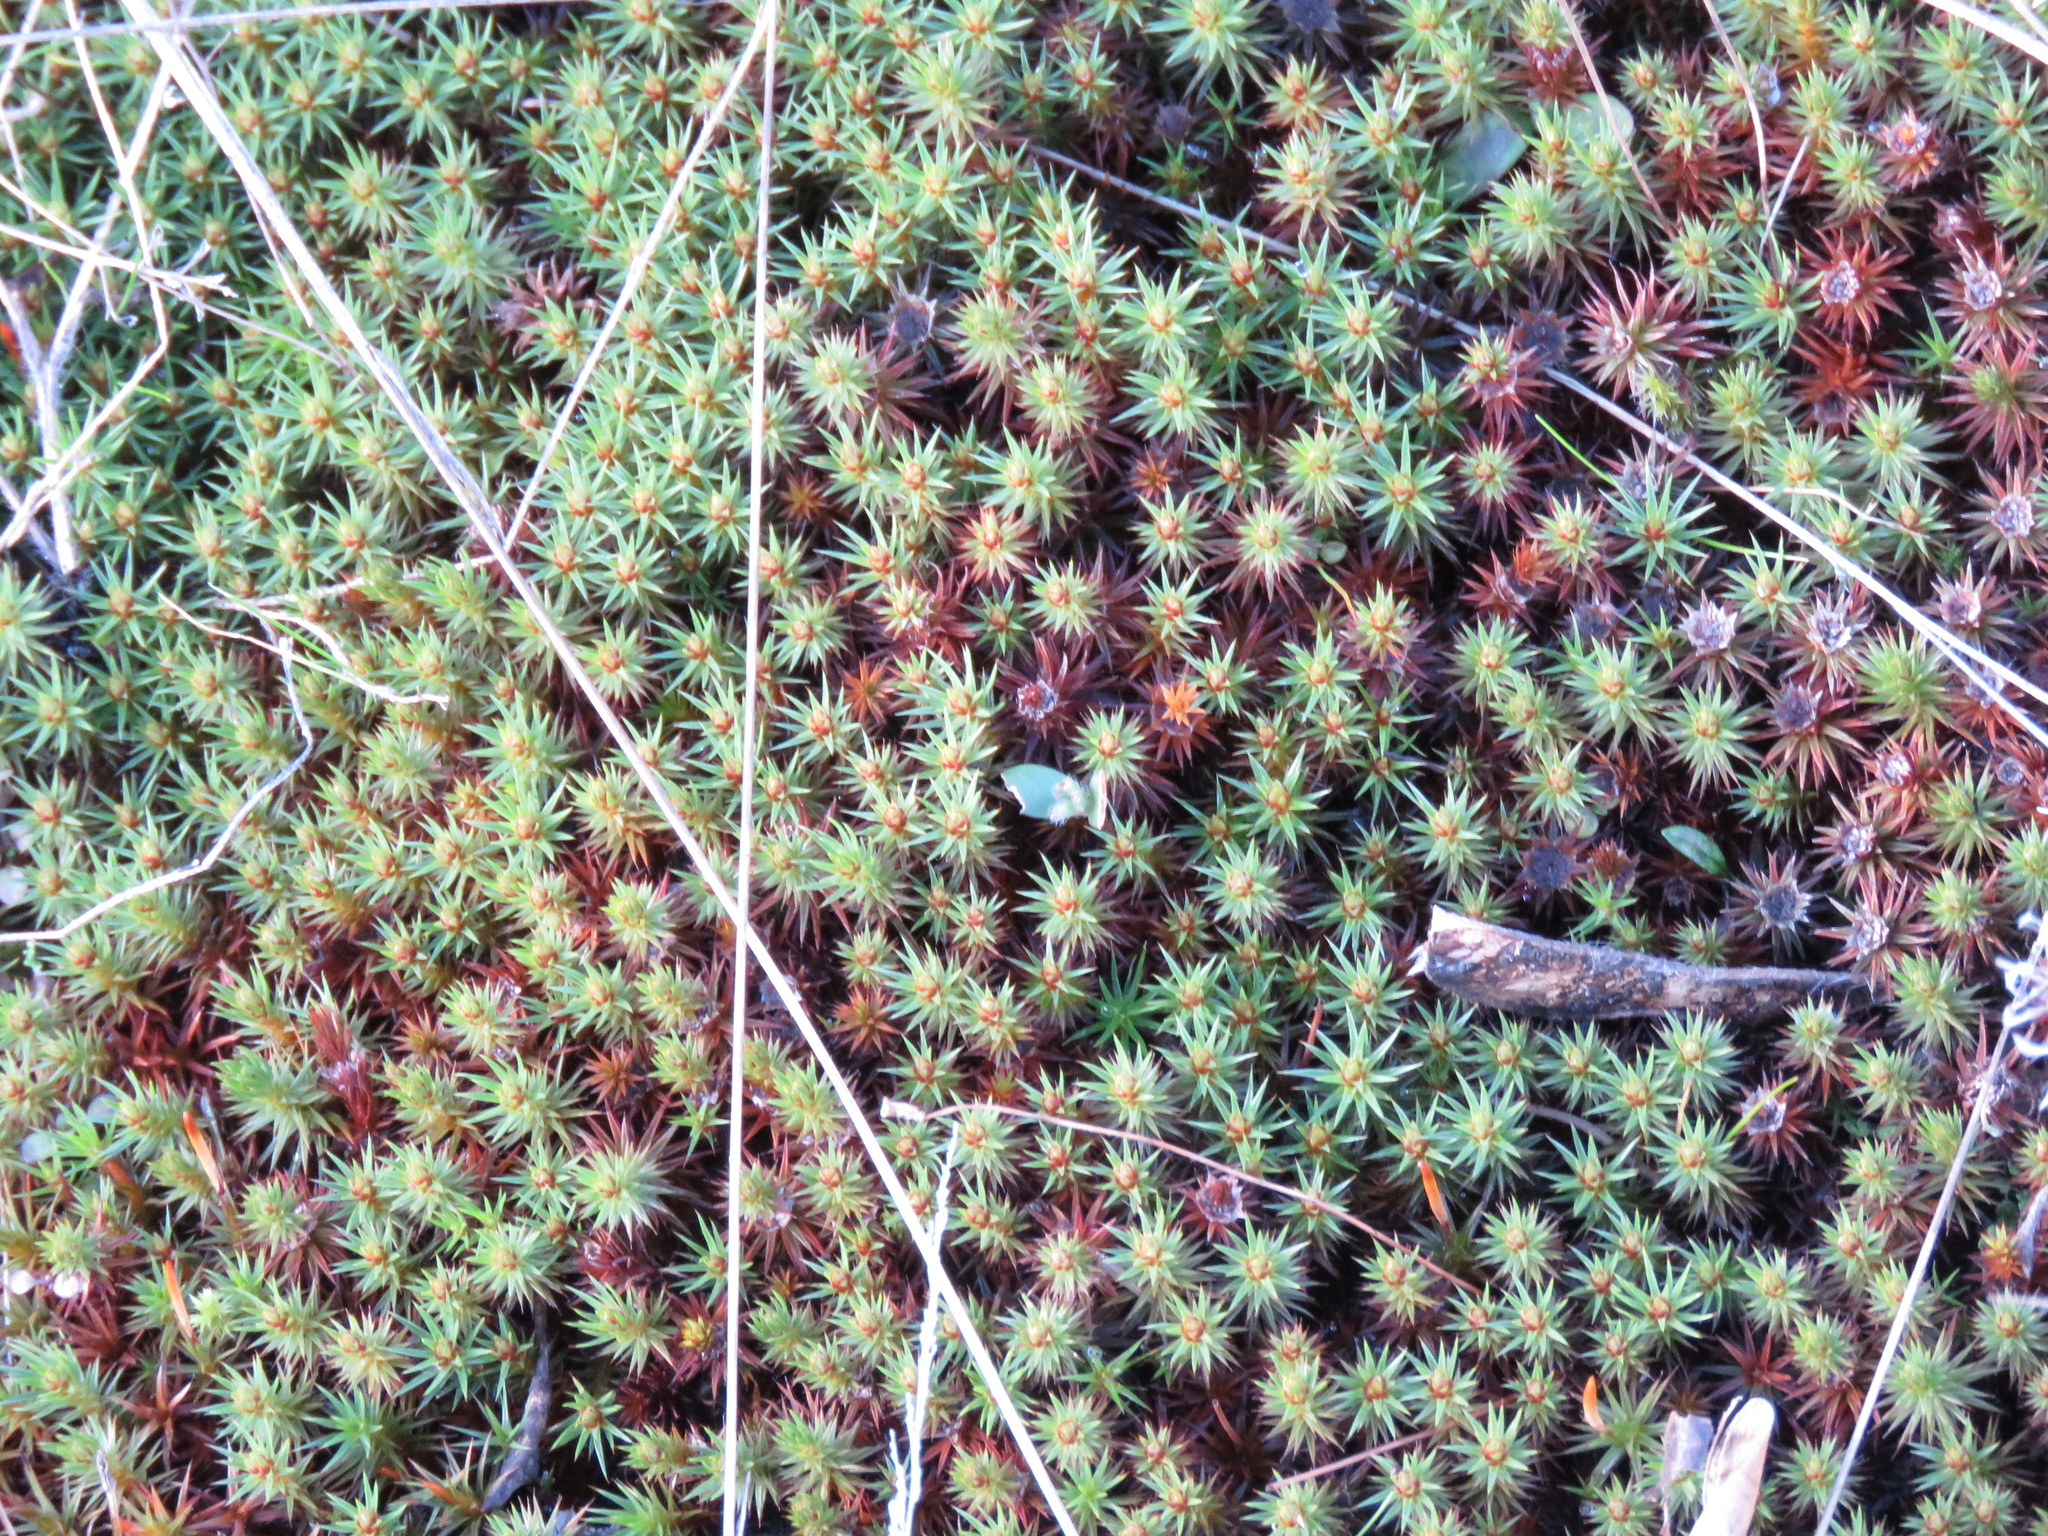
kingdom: Plantae
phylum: Bryophyta
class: Polytrichopsida
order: Polytrichales
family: Polytrichaceae
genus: Polytrichum
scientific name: Polytrichum juniperinum
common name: Juniper haircap moss
